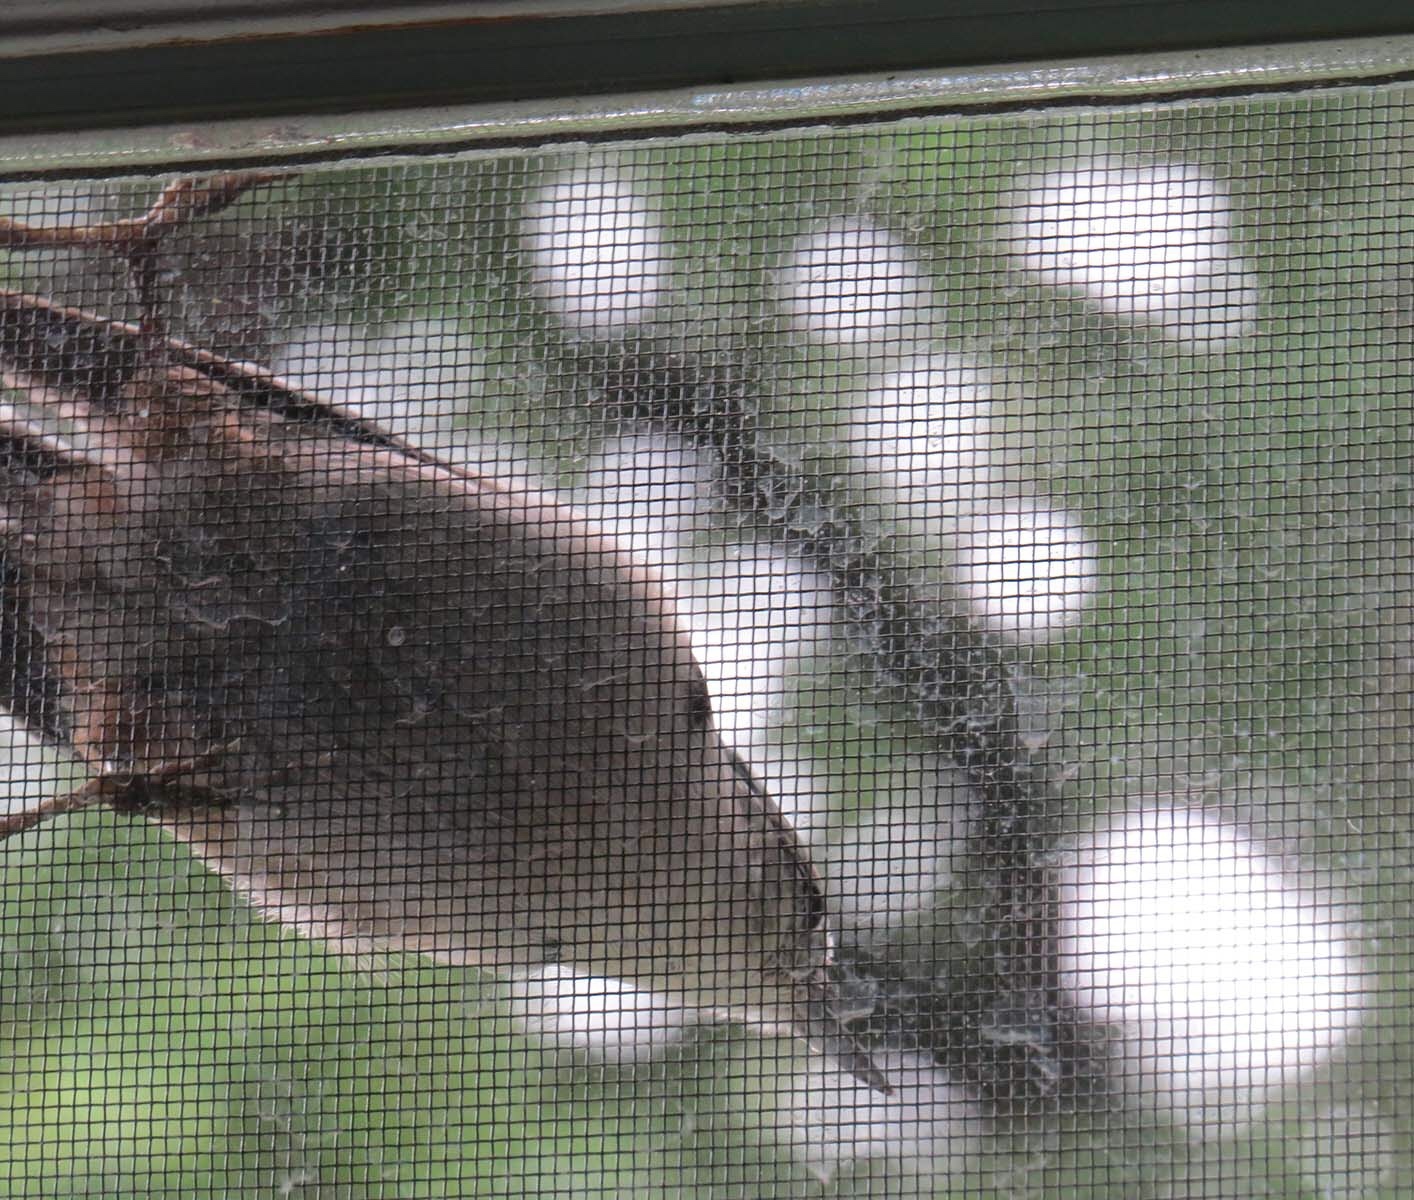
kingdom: Animalia
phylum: Chordata
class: Aves
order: Passeriformes
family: Sittidae
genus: Sitta
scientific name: Sitta carolinensis
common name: White-breasted nuthatch
